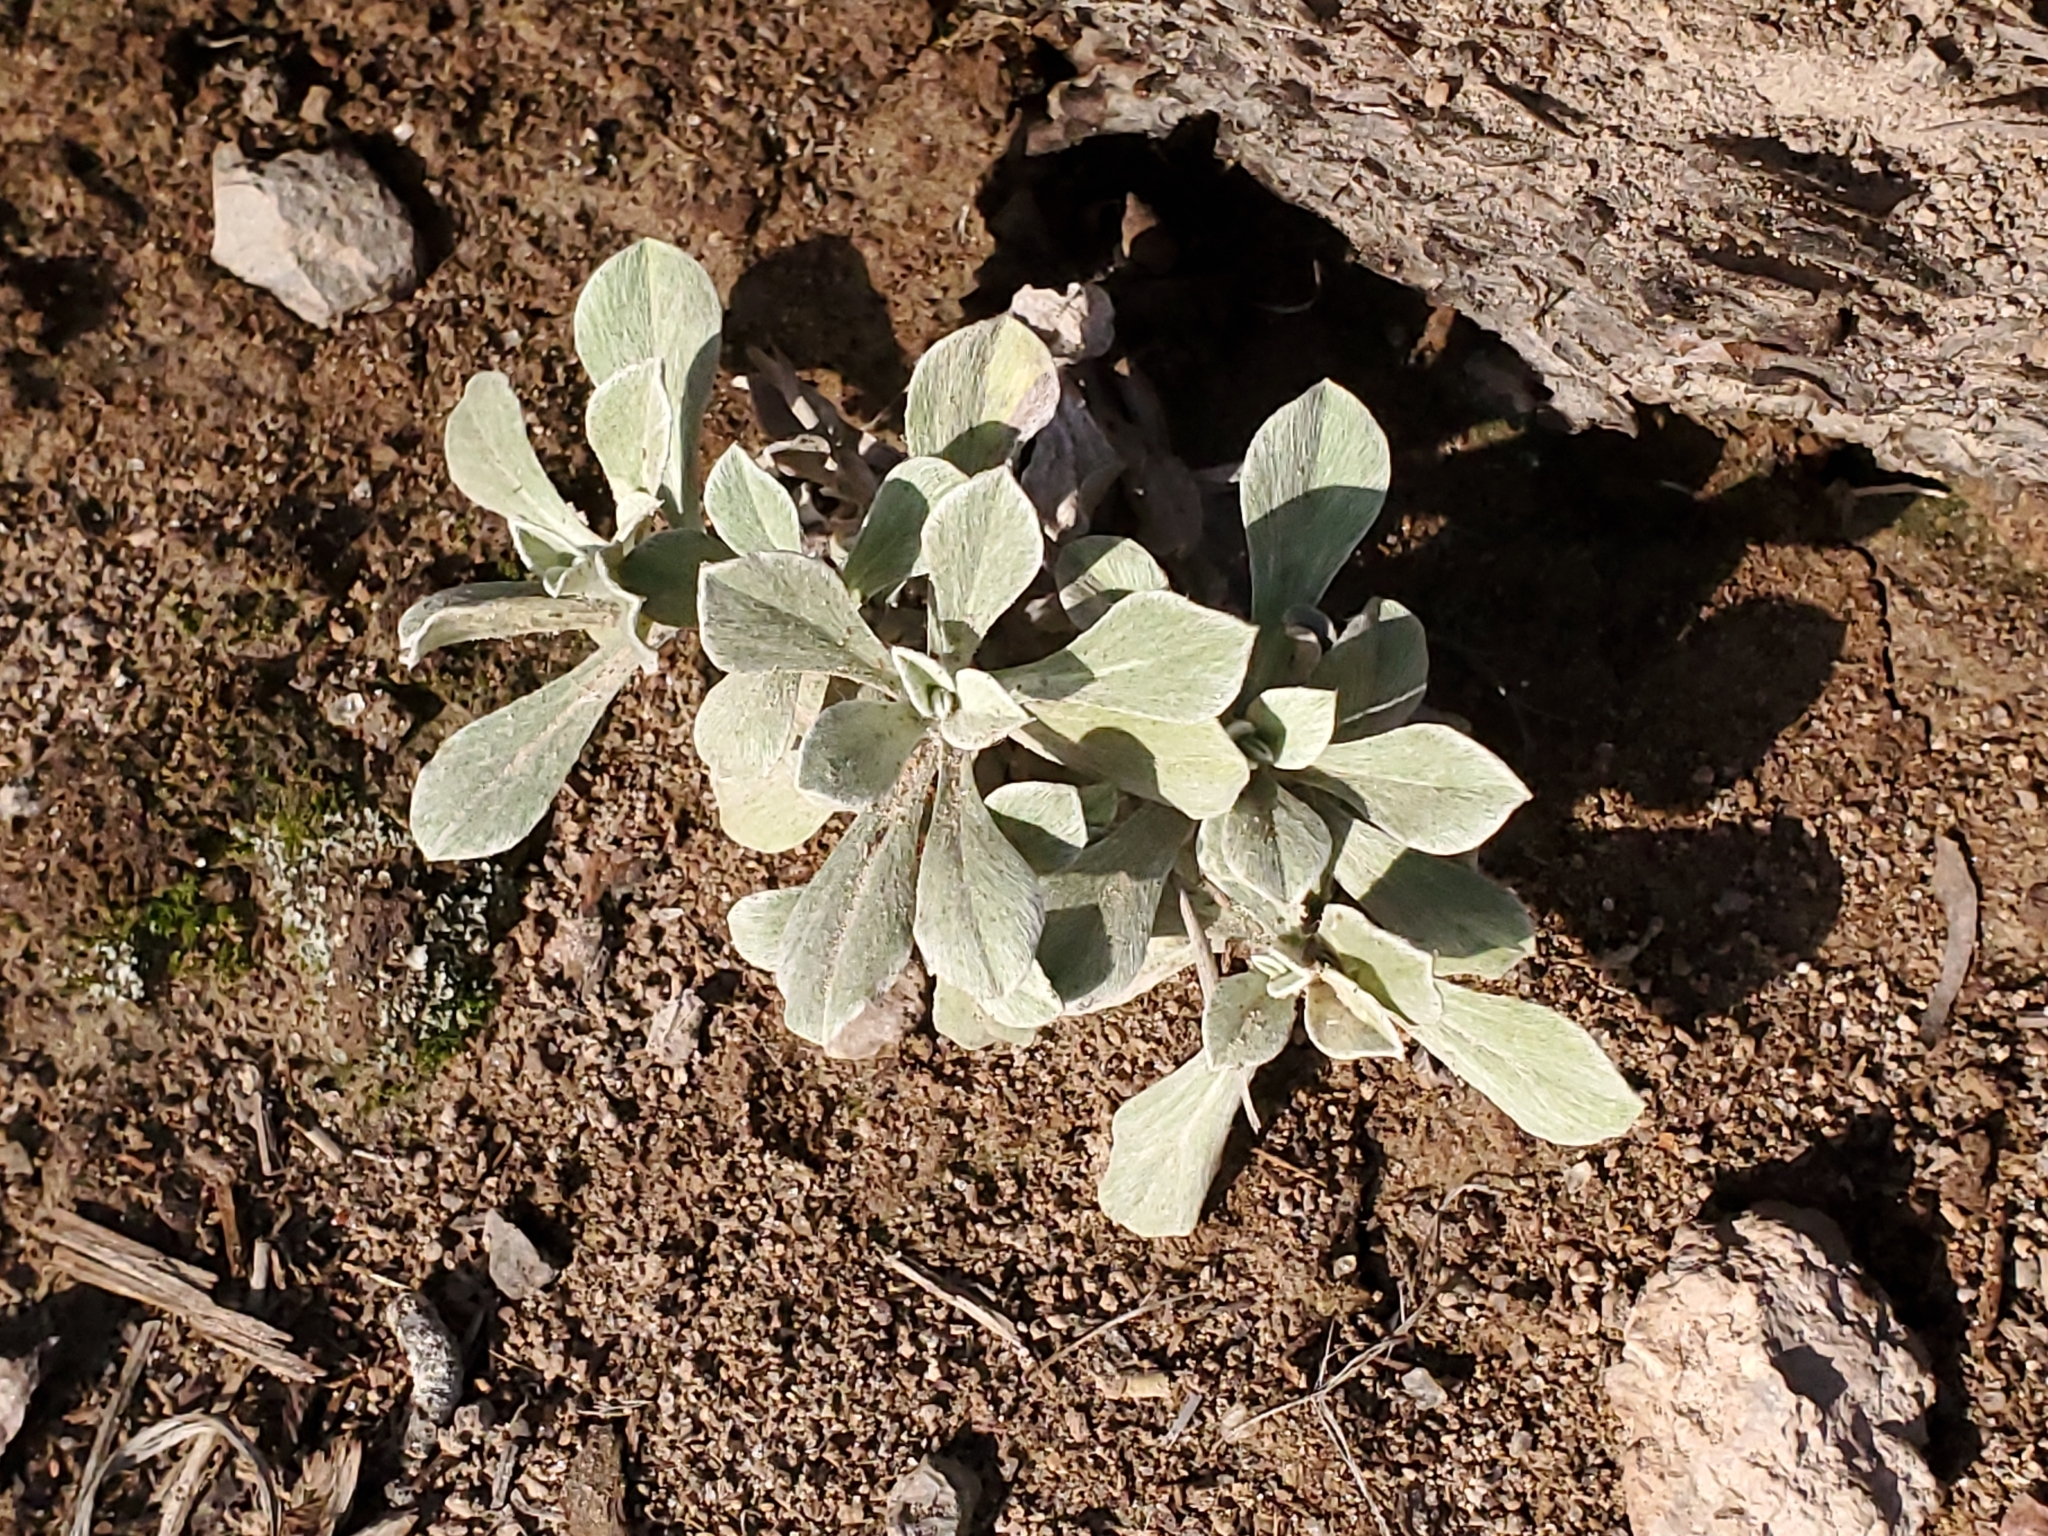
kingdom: Plantae
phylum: Tracheophyta
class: Magnoliopsida
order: Asterales
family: Asteraceae
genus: Antennaria
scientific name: Antennaria parvifolia
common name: Nuttall's pussytoes
